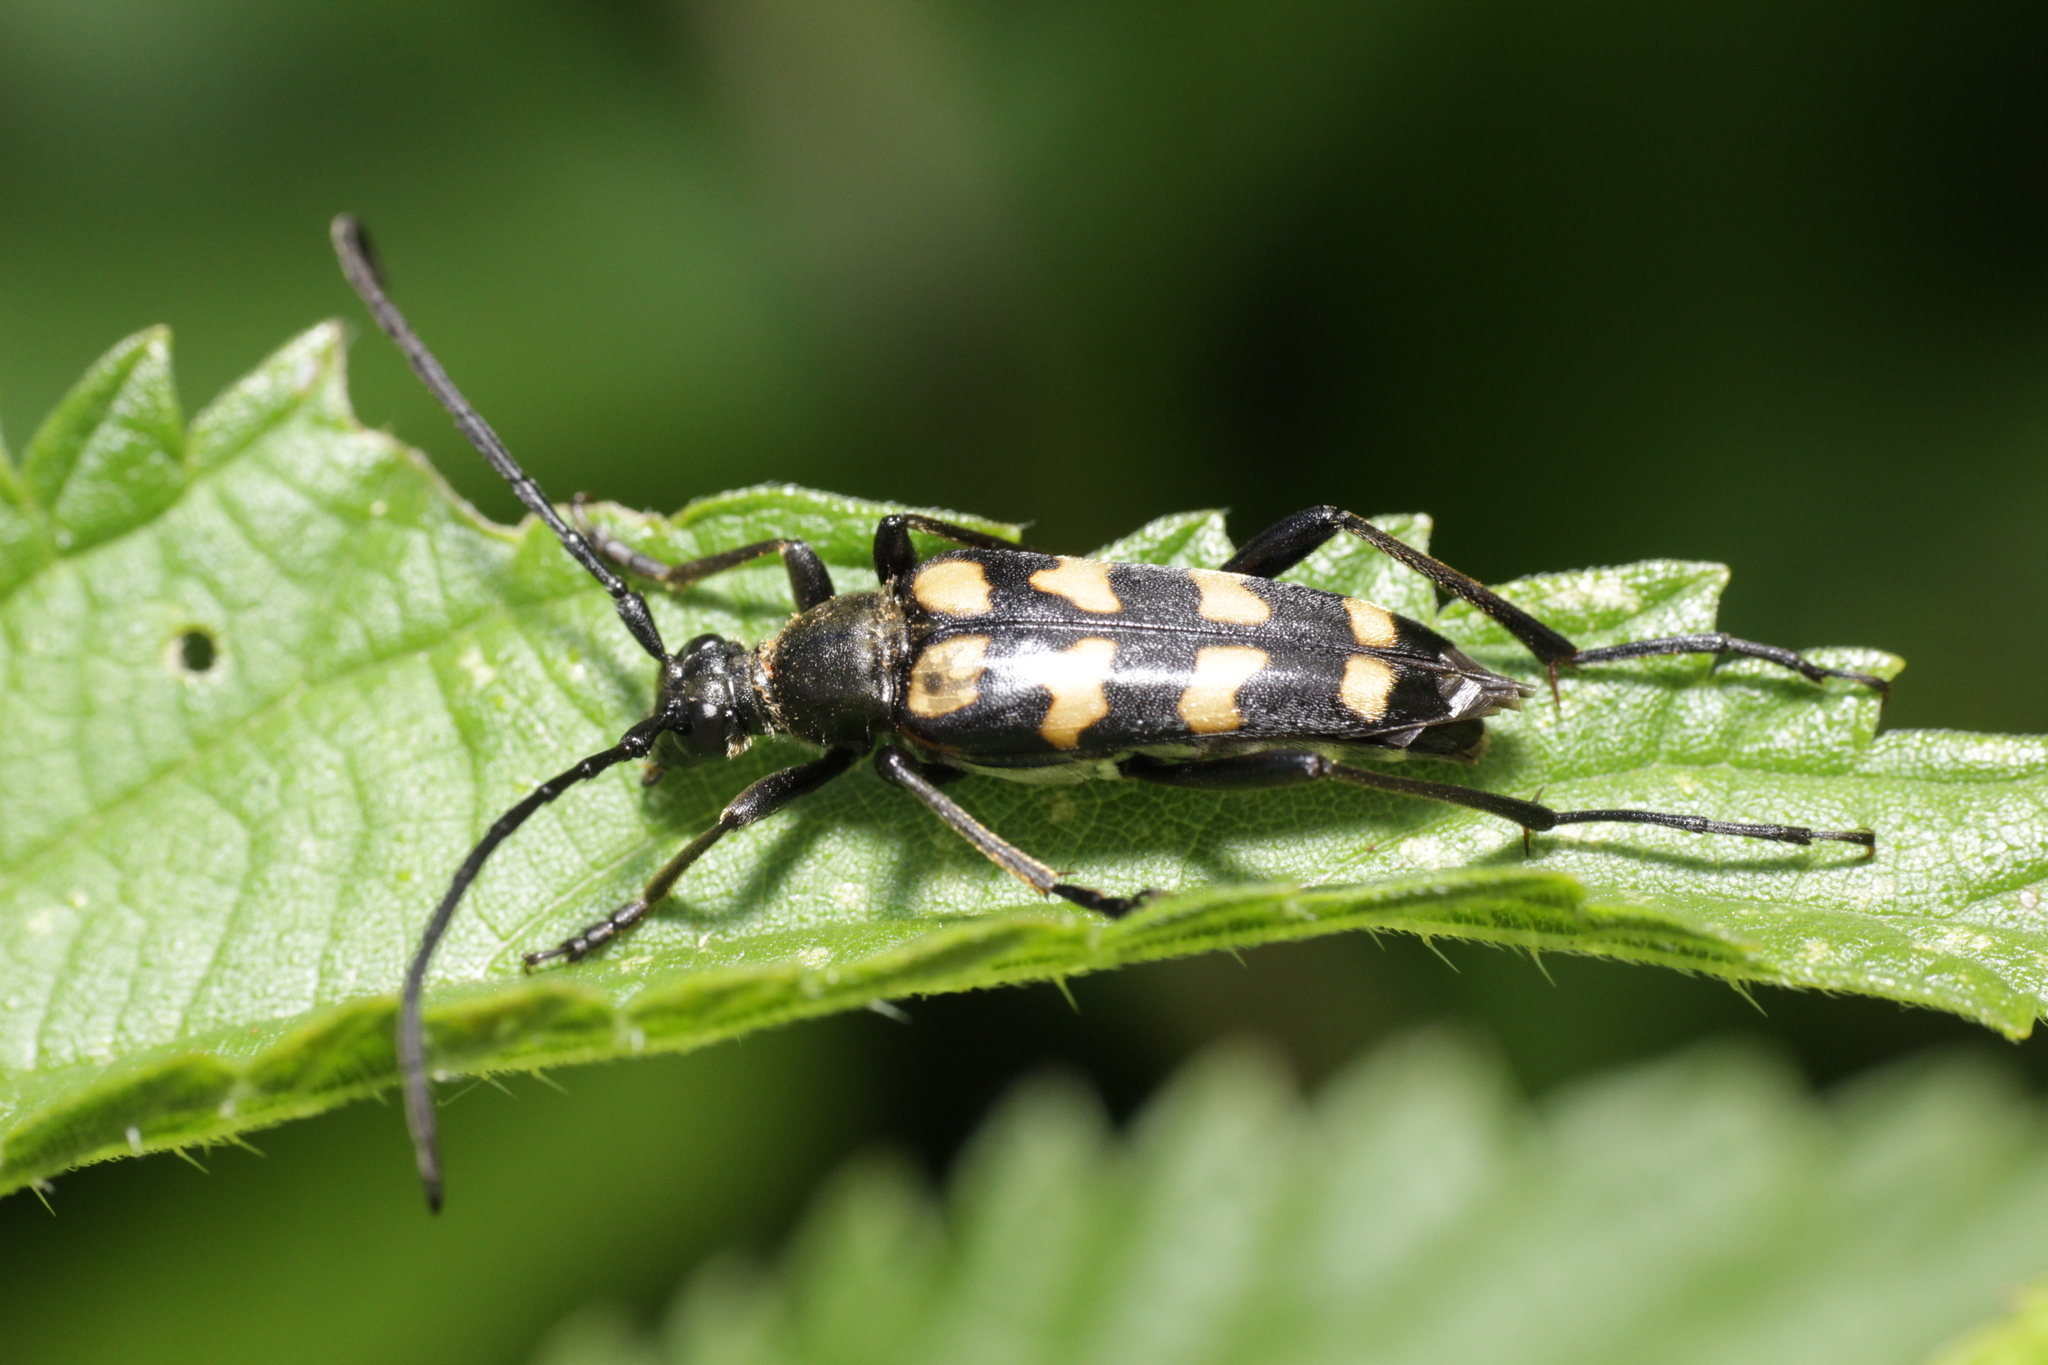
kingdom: Animalia
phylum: Arthropoda
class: Insecta
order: Coleoptera
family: Cerambycidae
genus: Leptura
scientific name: Leptura quadrifasciata
